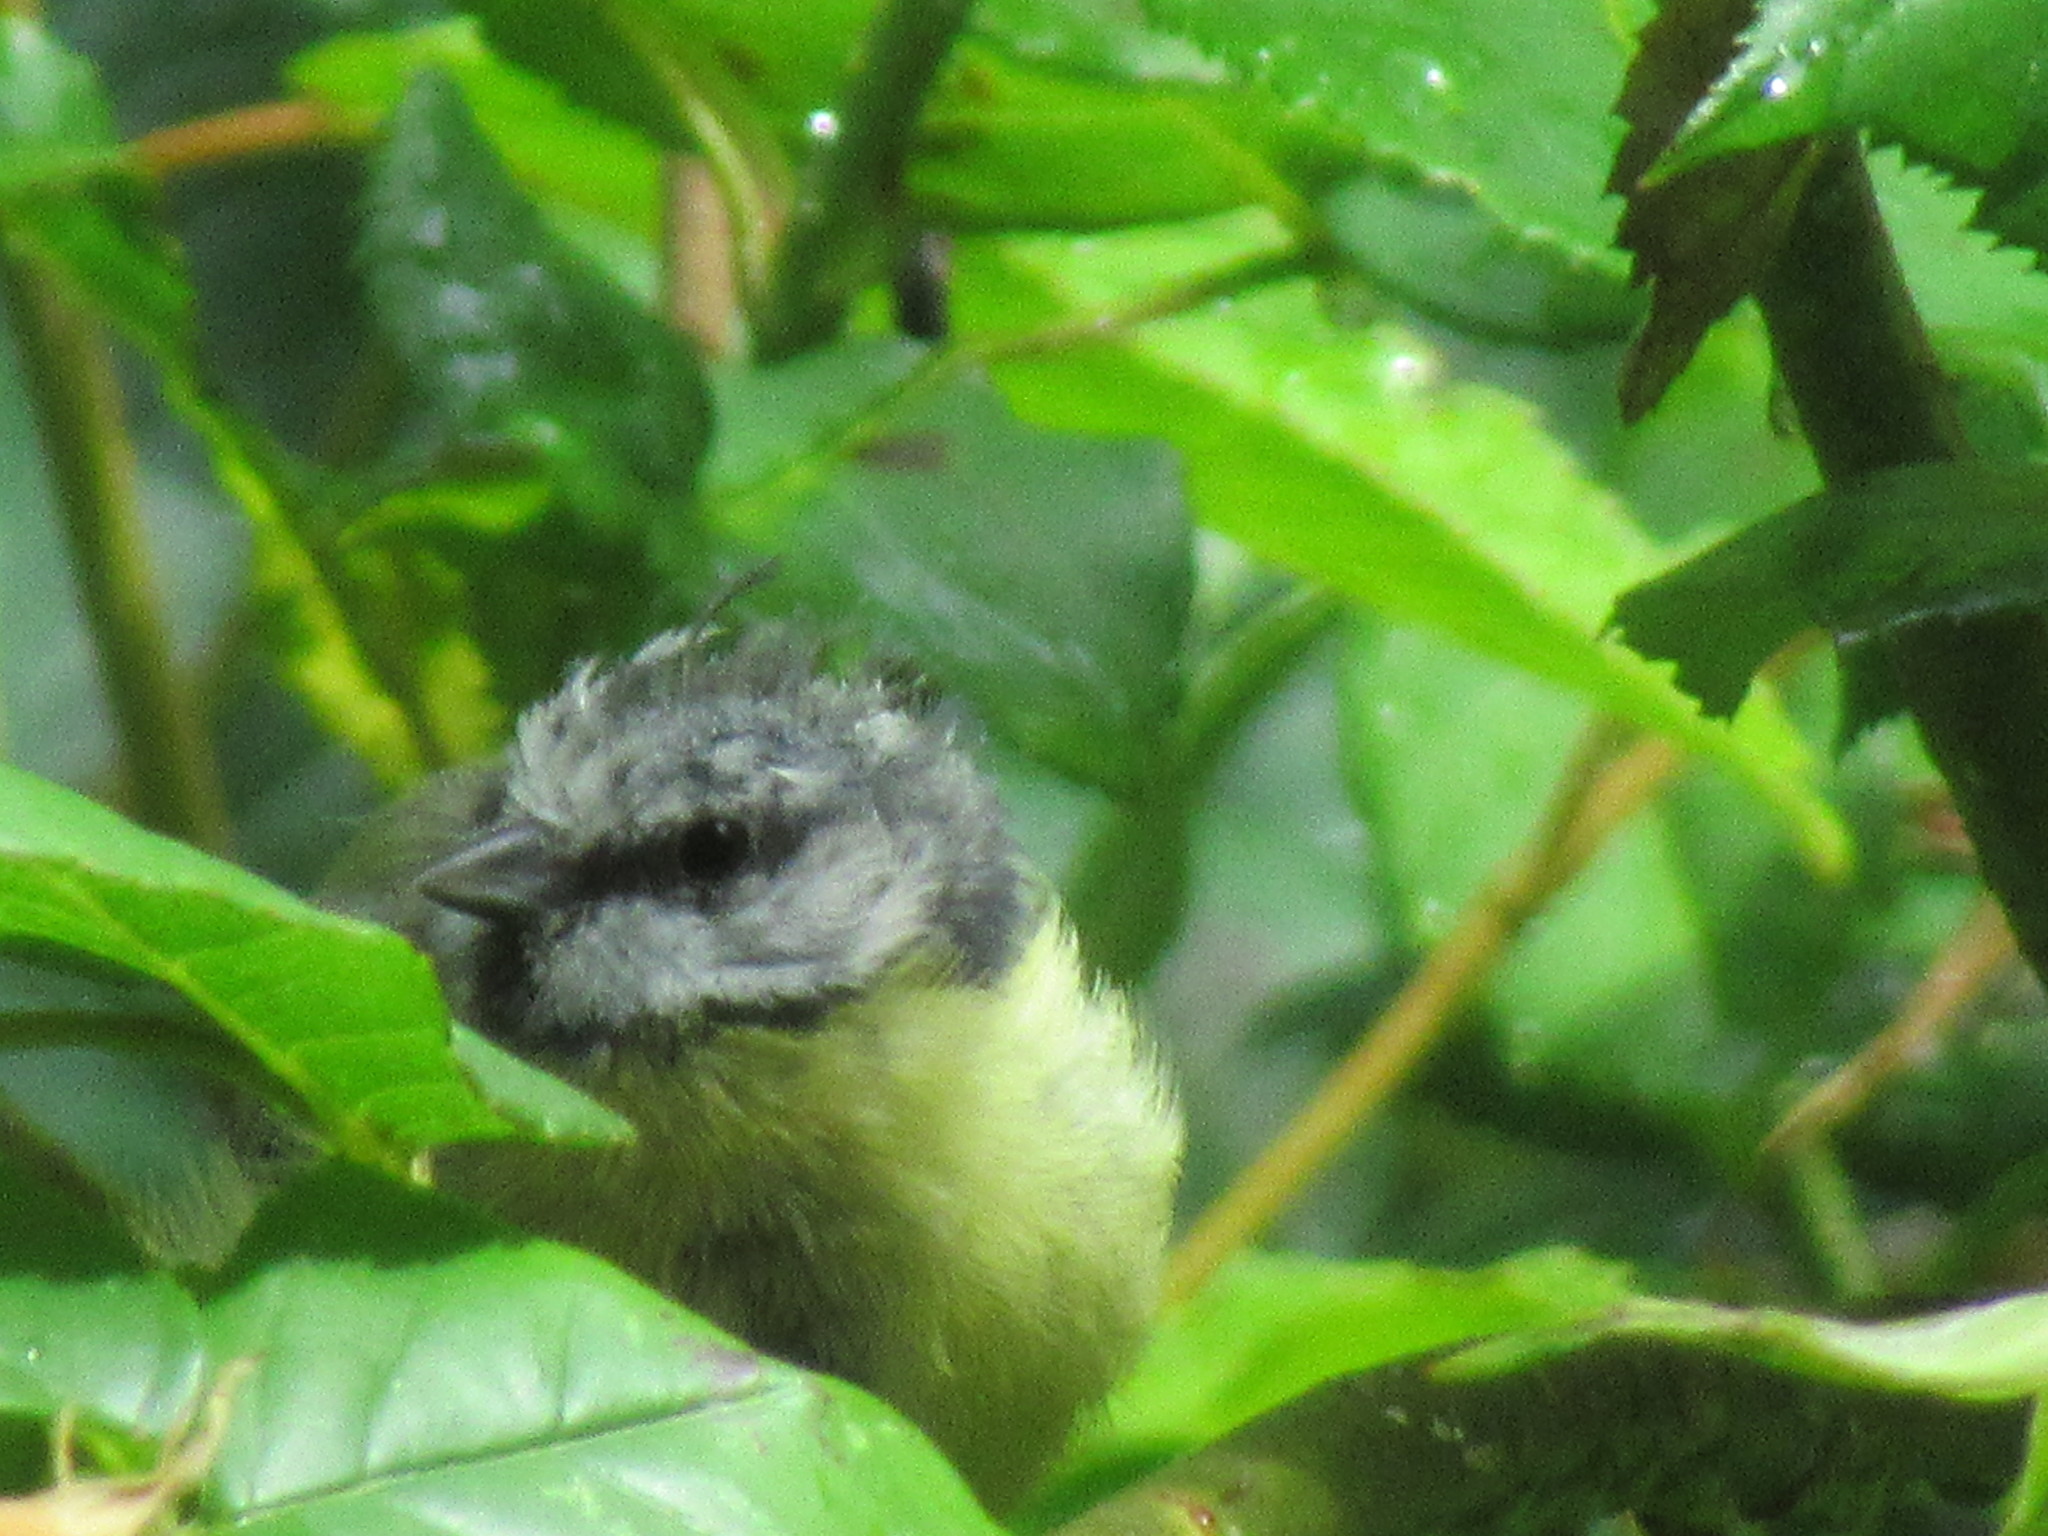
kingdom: Animalia
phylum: Chordata
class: Aves
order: Passeriformes
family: Paridae
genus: Cyanistes
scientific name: Cyanistes caeruleus
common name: Eurasian blue tit
